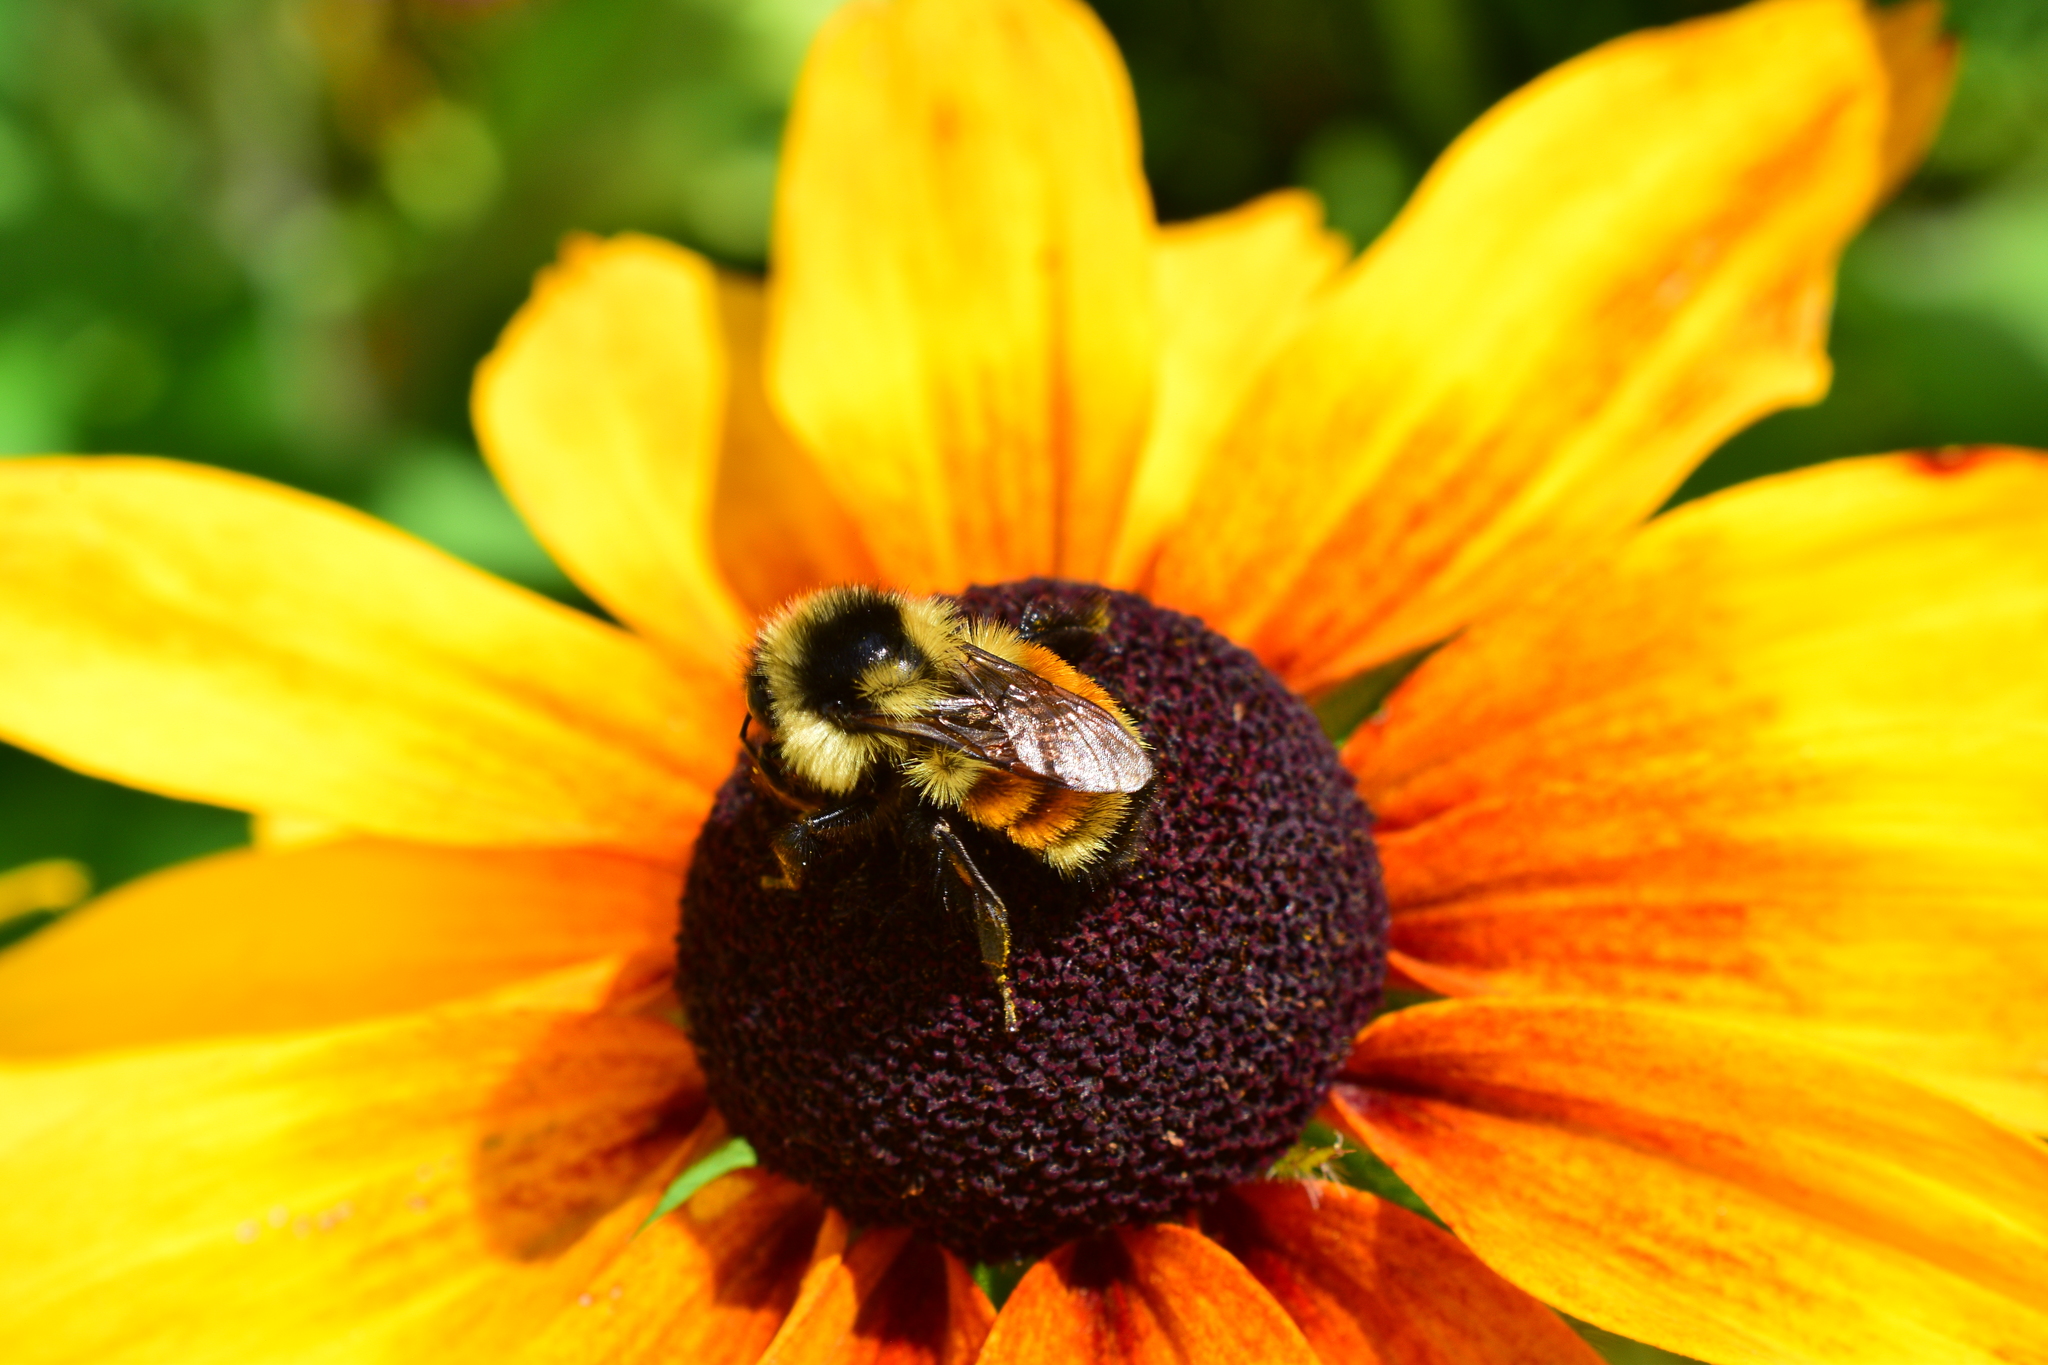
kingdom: Animalia
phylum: Arthropoda
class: Insecta
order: Hymenoptera
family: Apidae
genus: Bombus
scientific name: Bombus ternarius
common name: Tri-colored bumble bee
